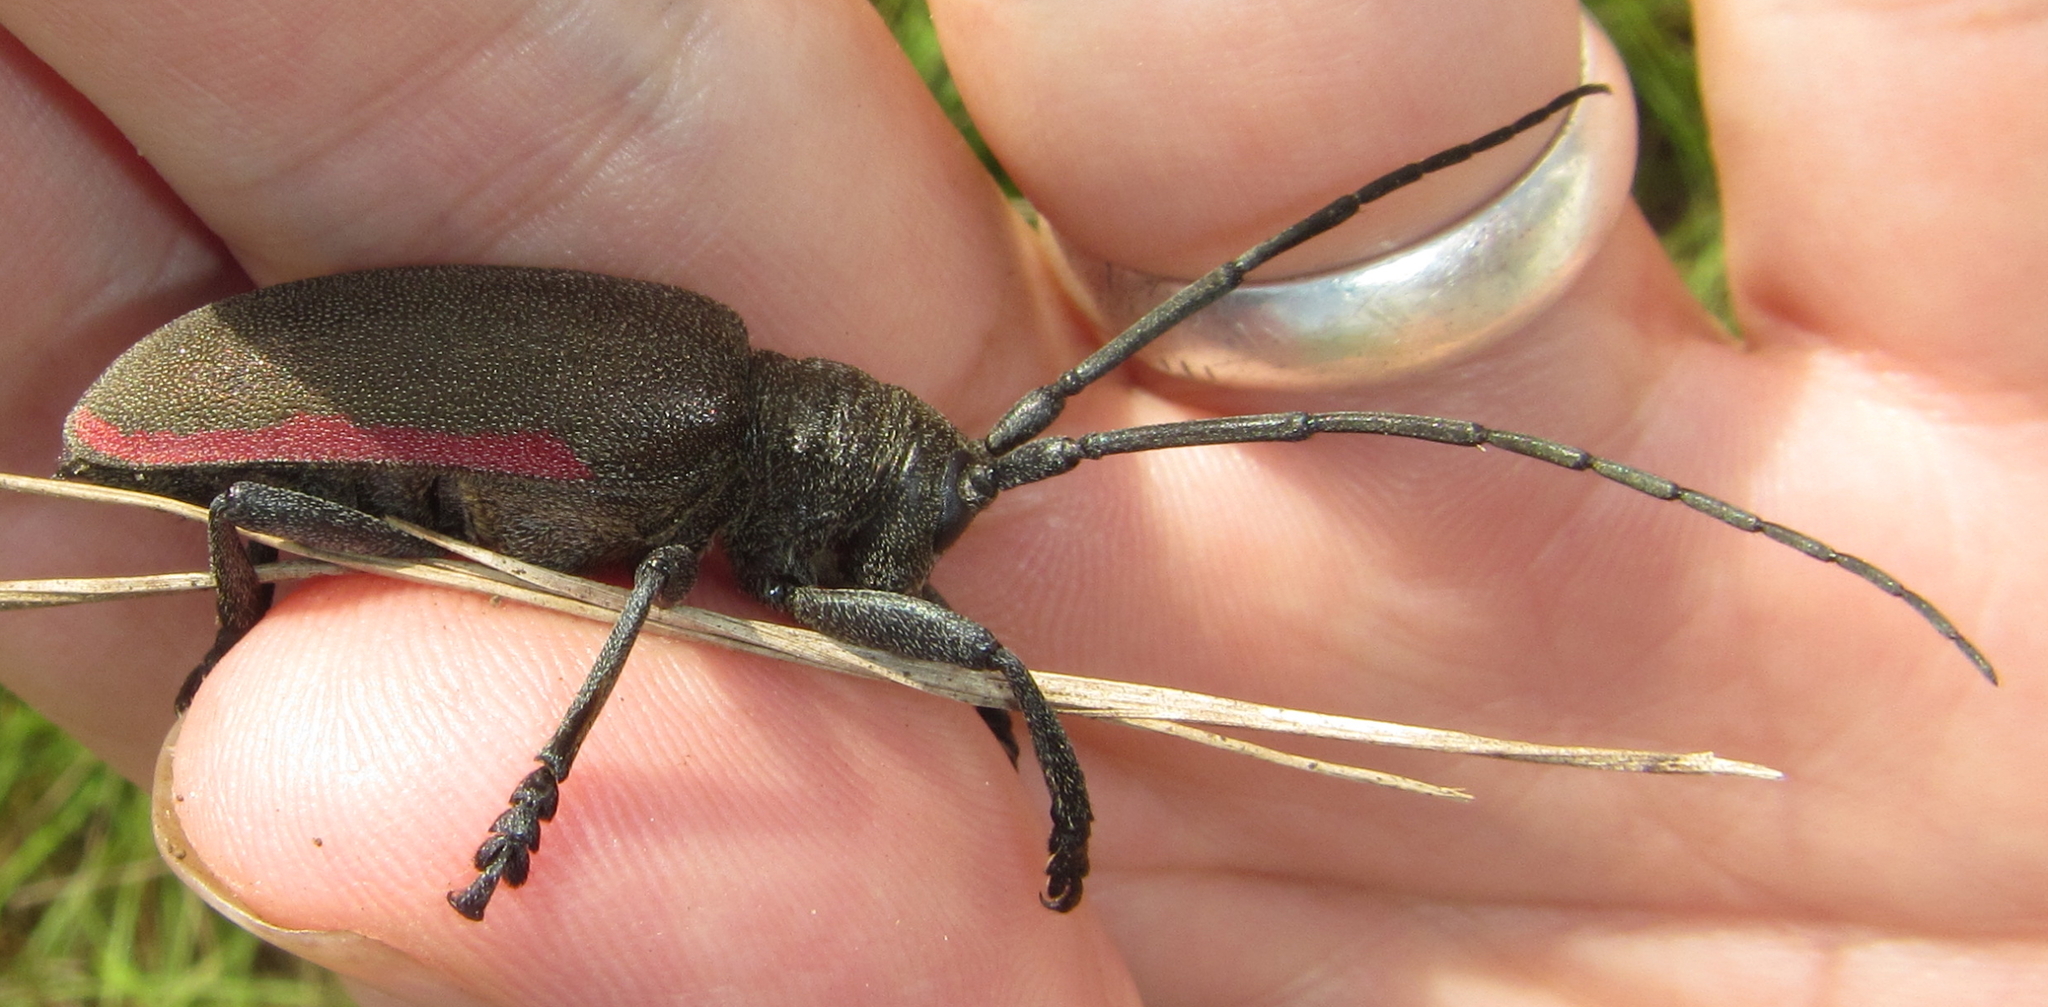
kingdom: Animalia
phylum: Arthropoda
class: Insecta
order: Coleoptera
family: Cerambycidae
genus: Ceroplesis
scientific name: Ceroplesis ferrugator
